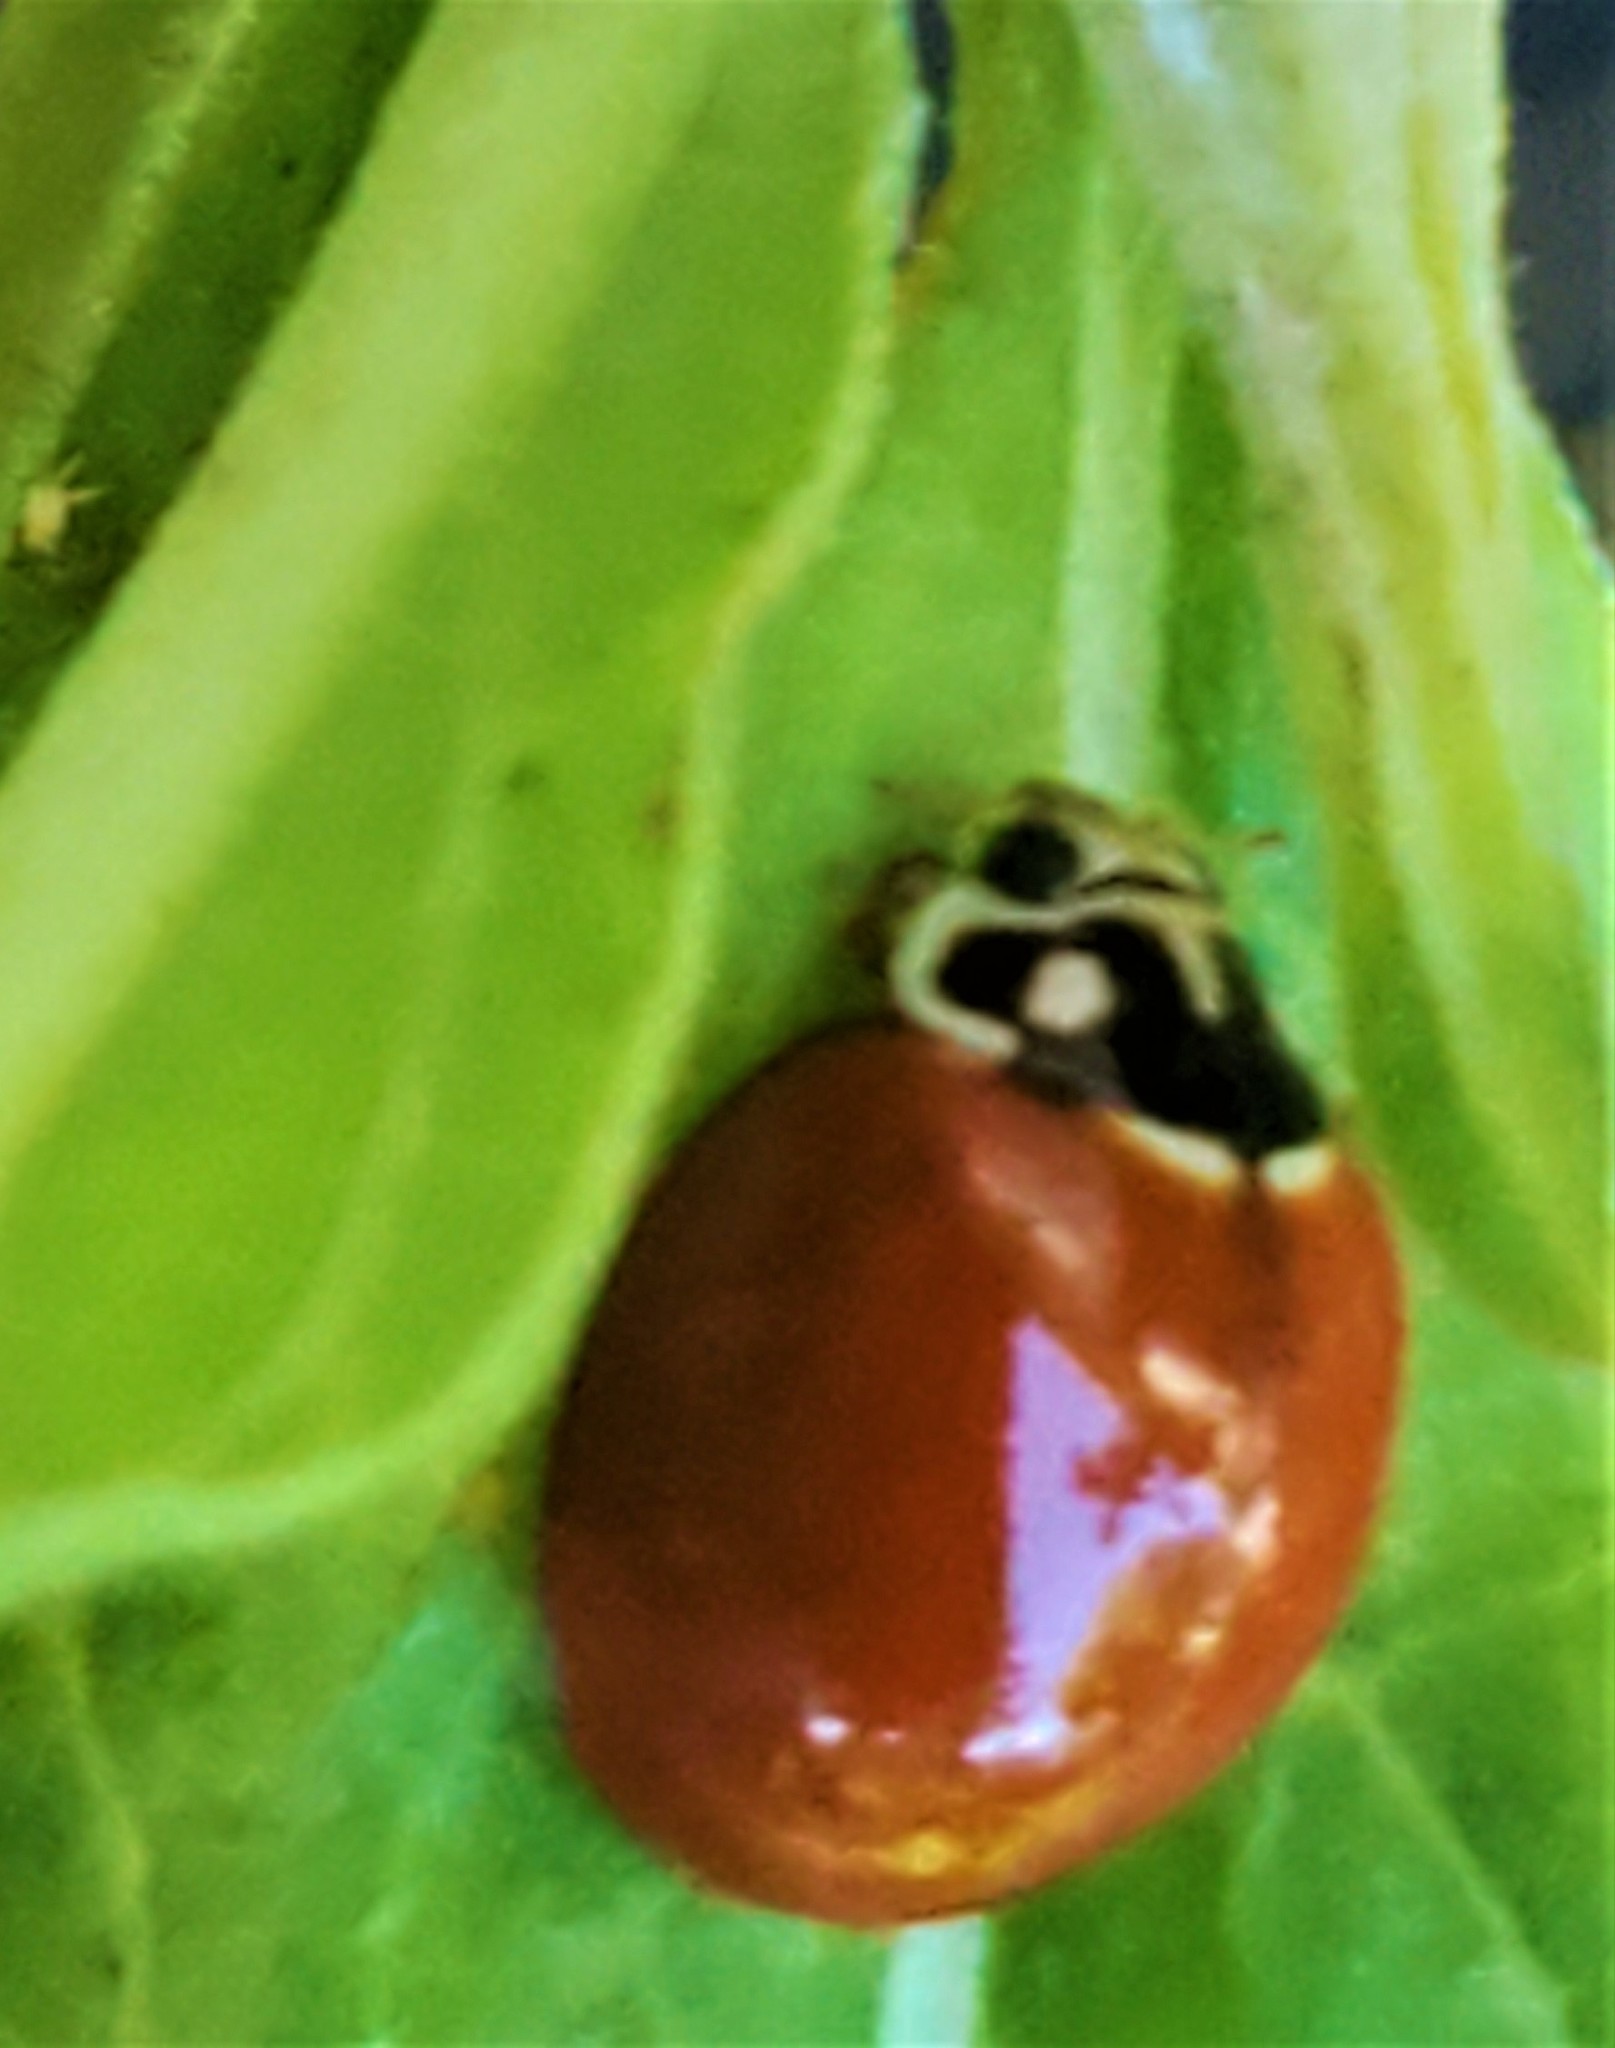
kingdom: Animalia
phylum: Arthropoda
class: Insecta
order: Coleoptera
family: Coccinellidae
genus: Cycloneda
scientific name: Cycloneda sanguinea
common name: Ladybird beetle
